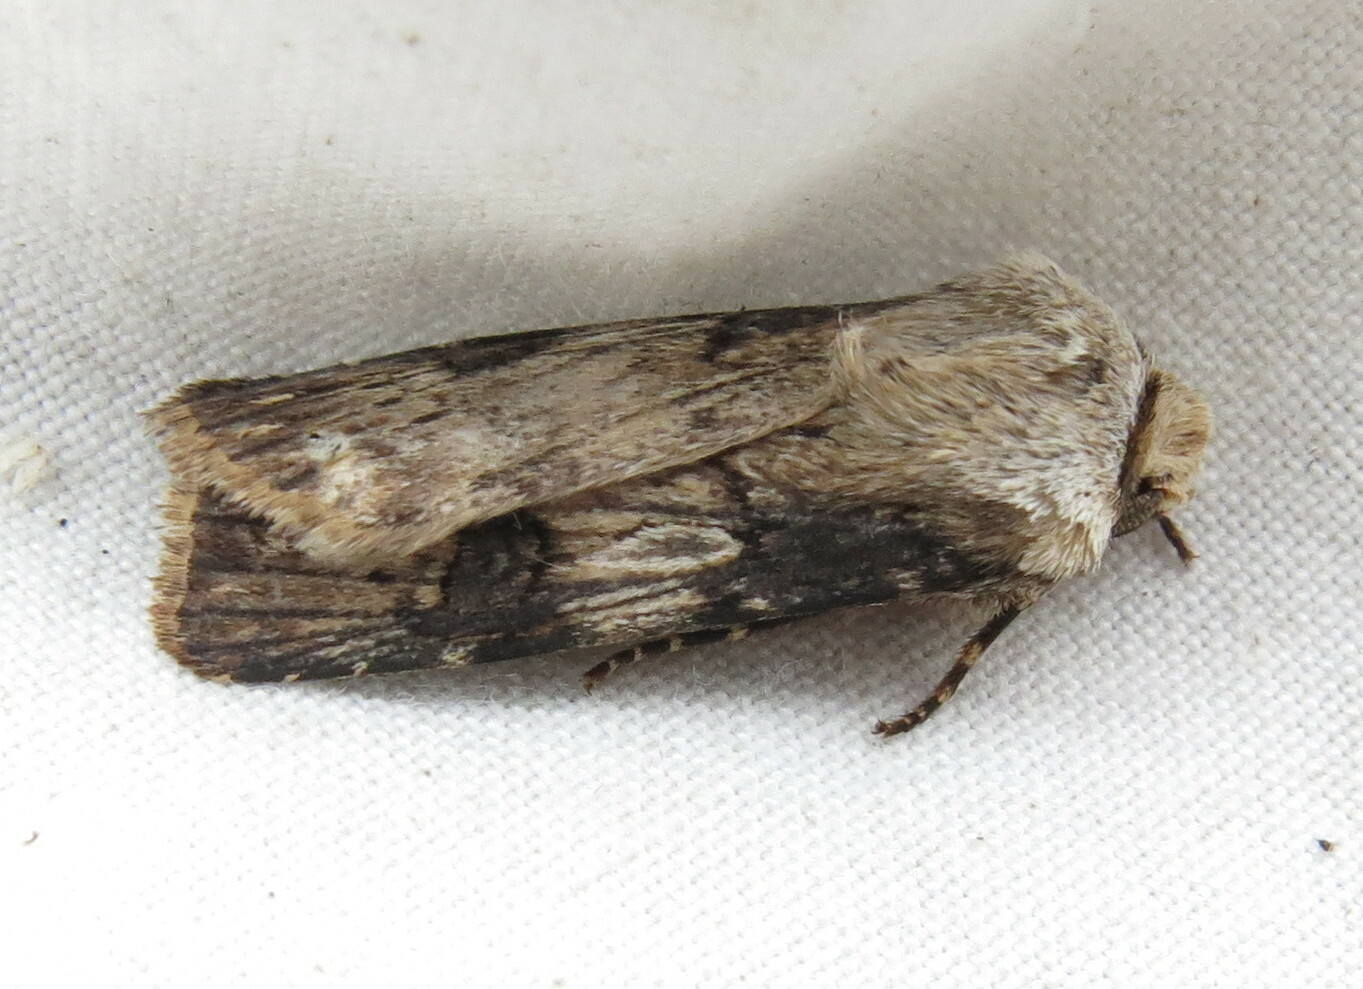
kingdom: Animalia
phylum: Arthropoda
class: Insecta
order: Lepidoptera
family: Noctuidae
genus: Agrotis
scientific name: Agrotis puta
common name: Shuttle-shaped dart
